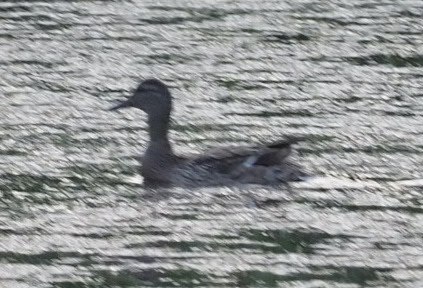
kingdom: Animalia
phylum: Chordata
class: Aves
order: Anseriformes
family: Anatidae
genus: Anas
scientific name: Anas platyrhynchos
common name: Mallard
